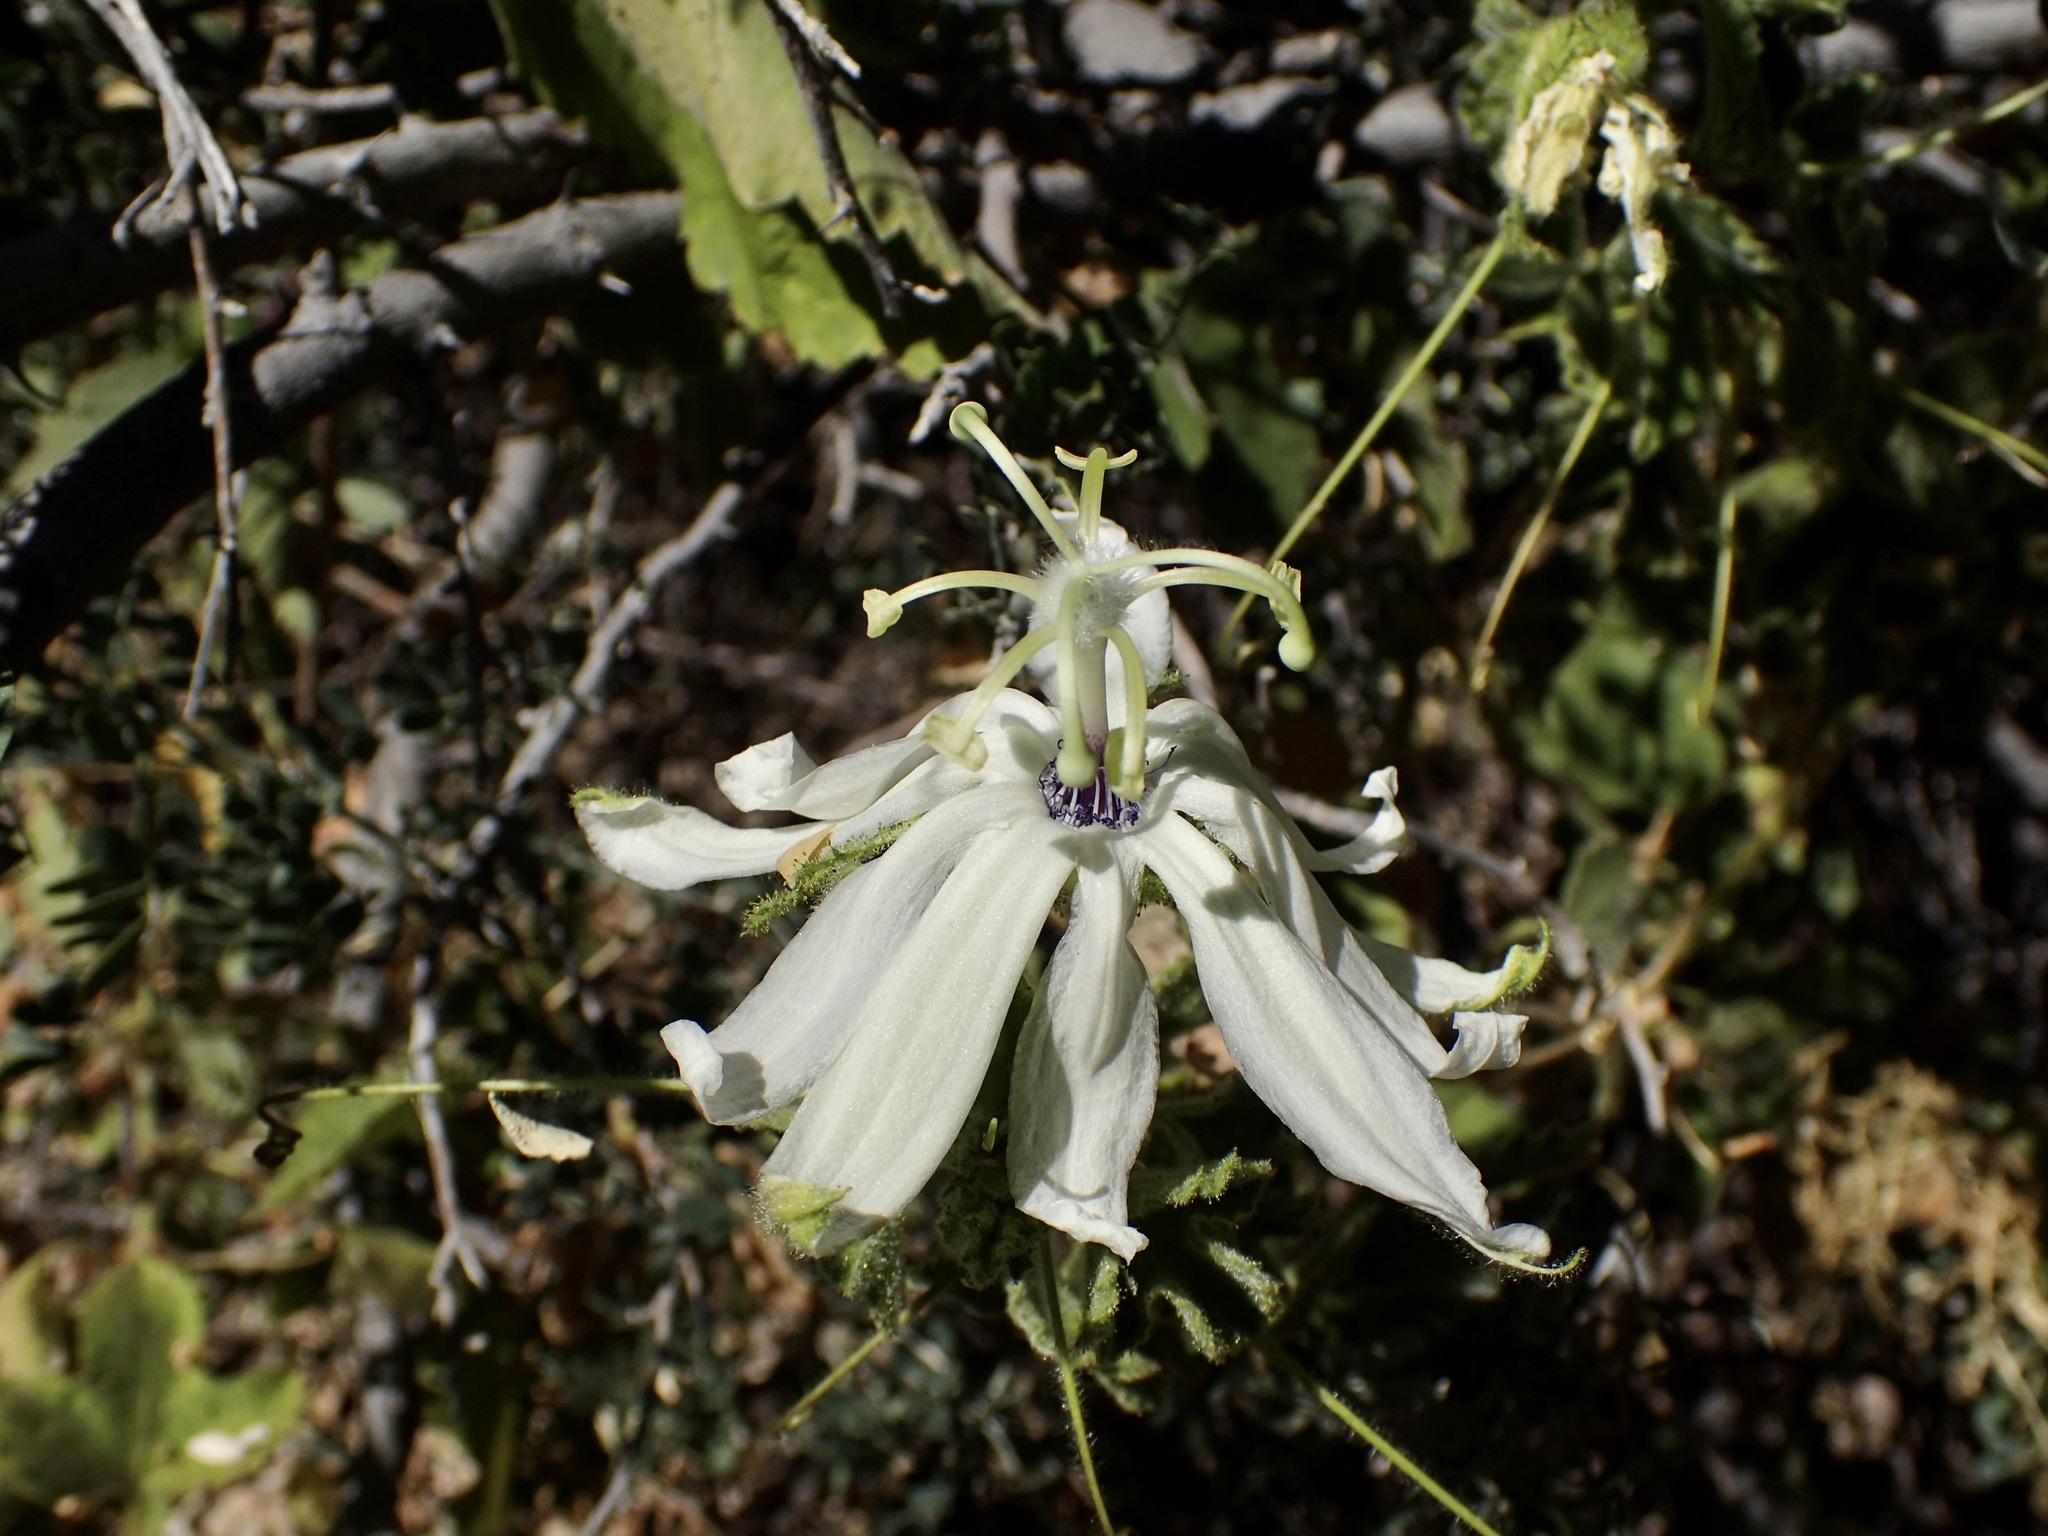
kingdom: Plantae
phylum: Tracheophyta
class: Magnoliopsida
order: Malpighiales
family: Passifloraceae
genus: Passiflora
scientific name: Passiflora palmeri
